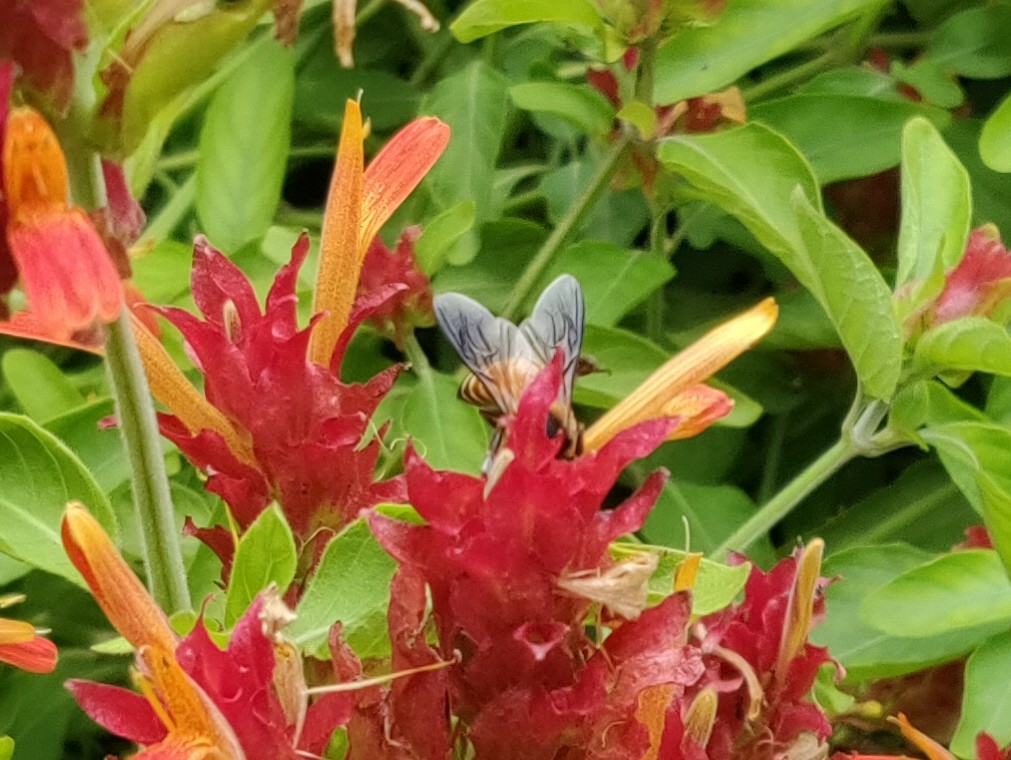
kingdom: Animalia
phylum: Arthropoda
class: Insecta
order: Hymenoptera
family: Apidae
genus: Apis
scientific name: Apis dorsata
